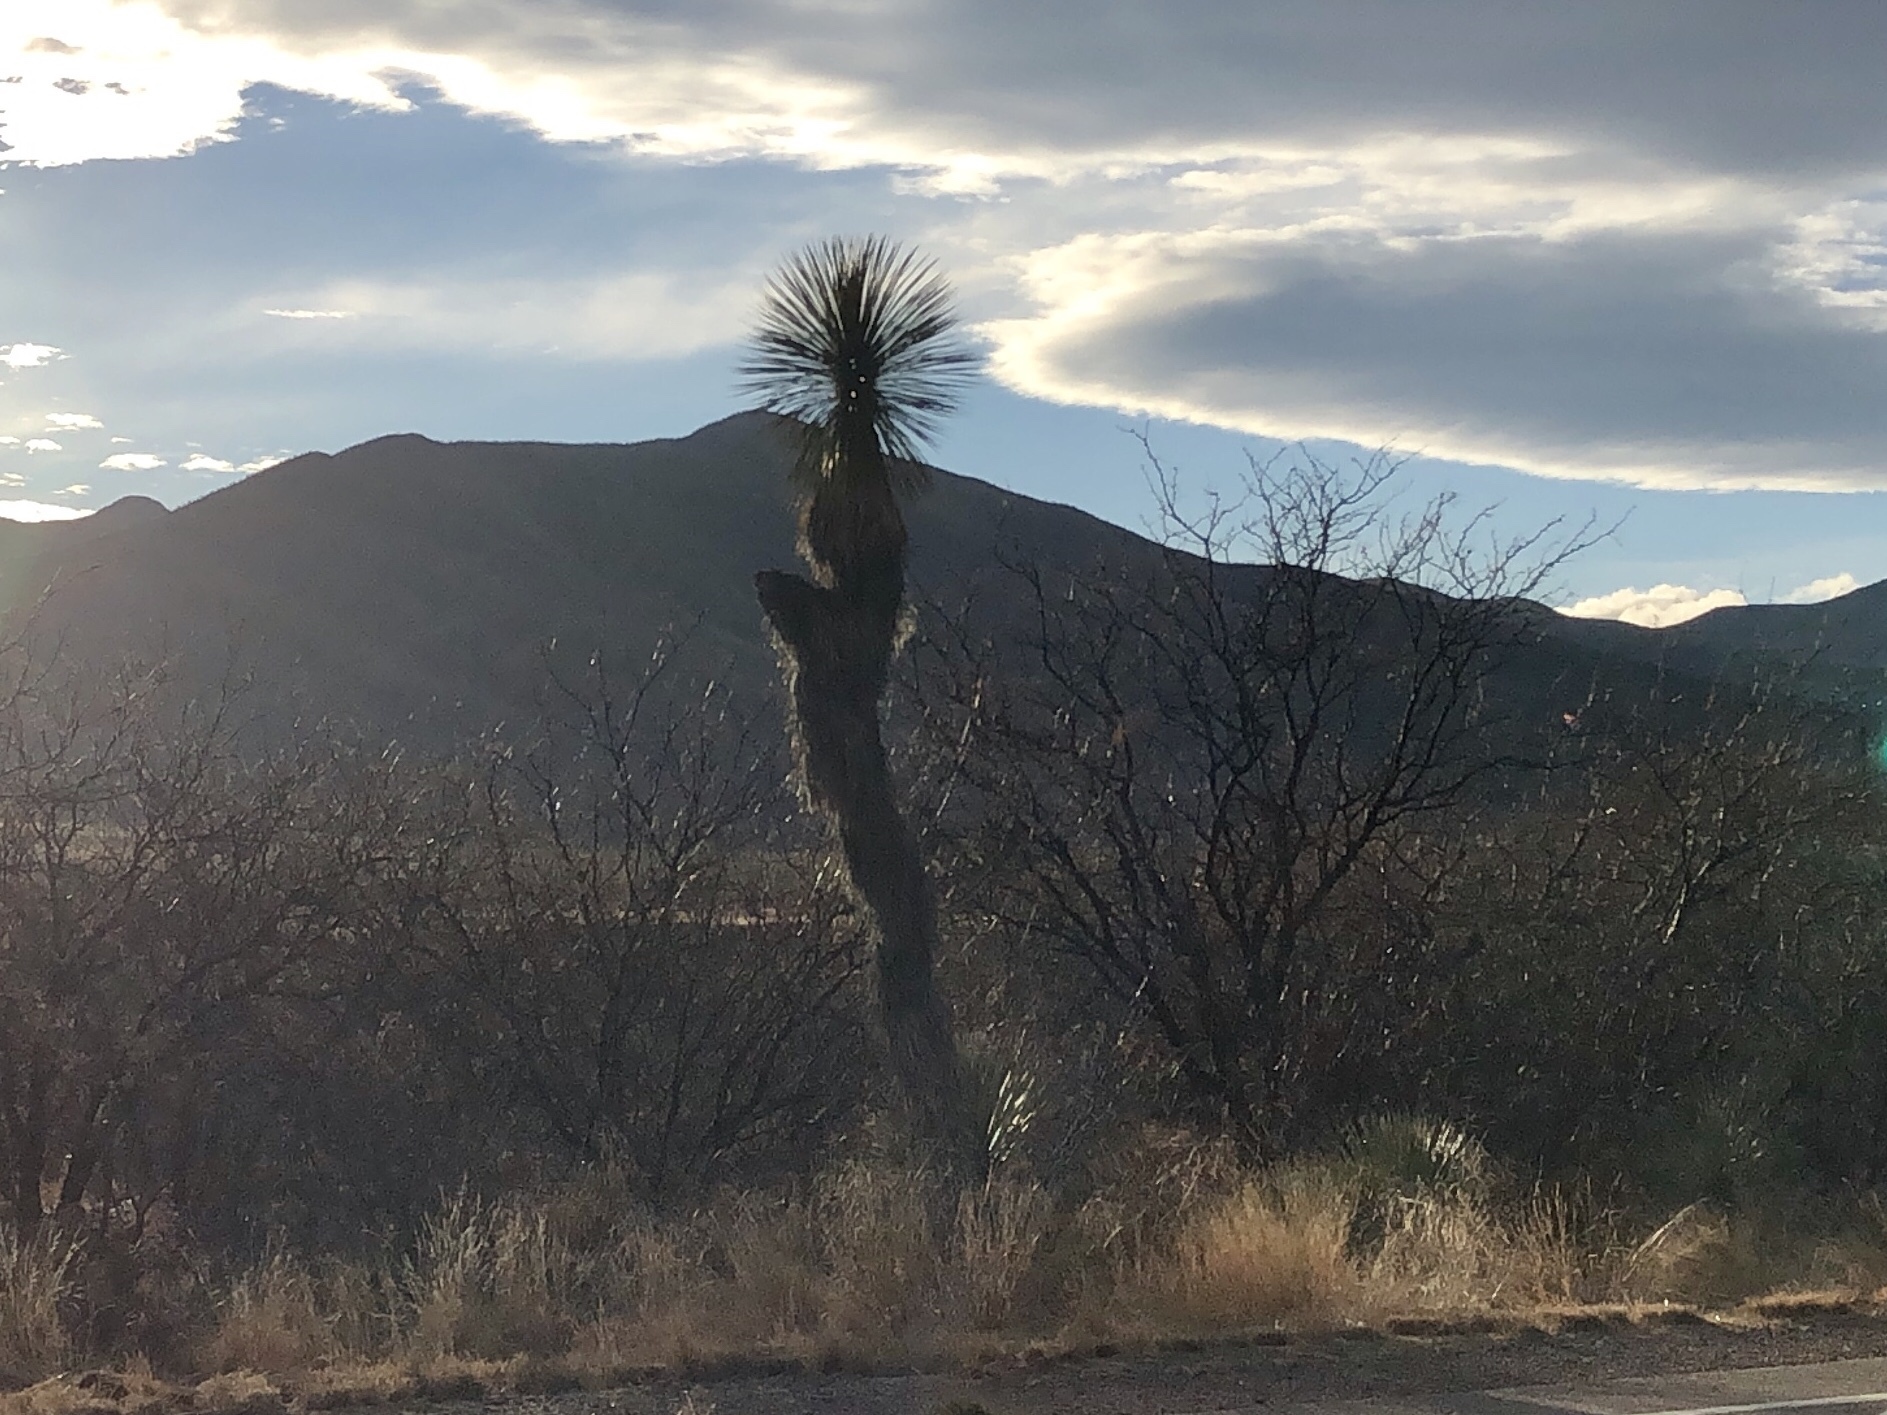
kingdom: Plantae
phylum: Tracheophyta
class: Liliopsida
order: Asparagales
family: Asparagaceae
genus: Yucca
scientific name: Yucca elata
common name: Palmella
